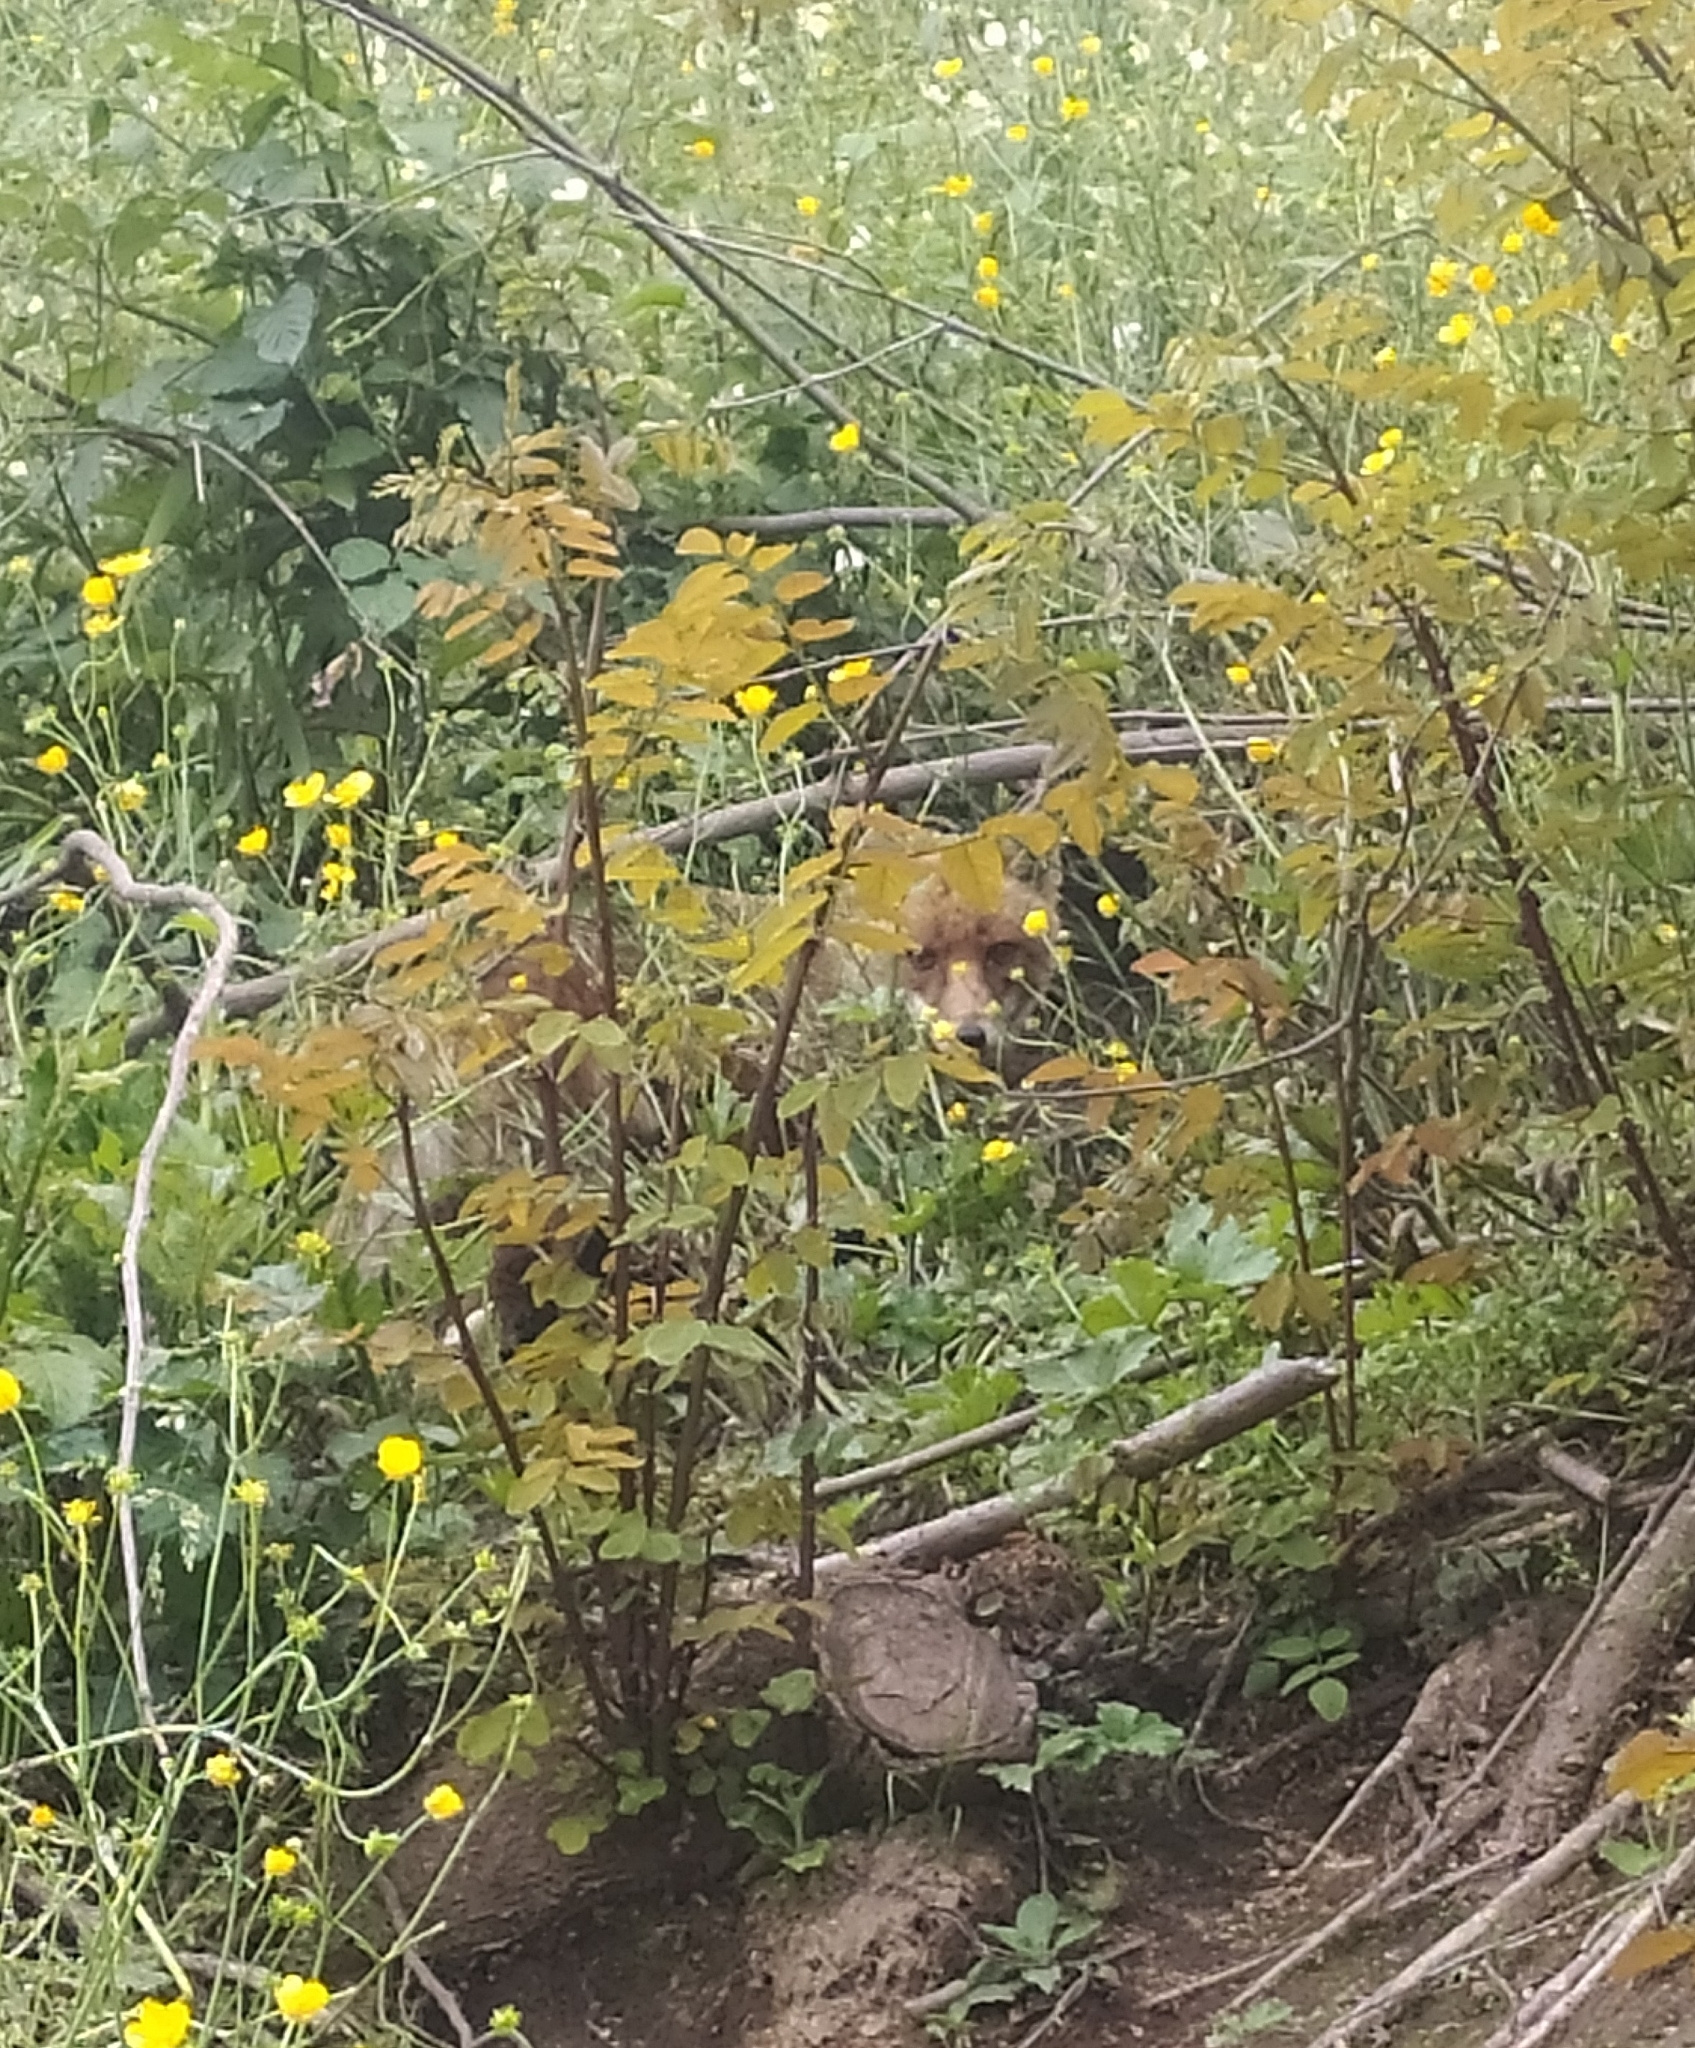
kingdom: Animalia
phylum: Chordata
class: Mammalia
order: Carnivora
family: Canidae
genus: Vulpes
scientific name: Vulpes vulpes
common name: Red fox
